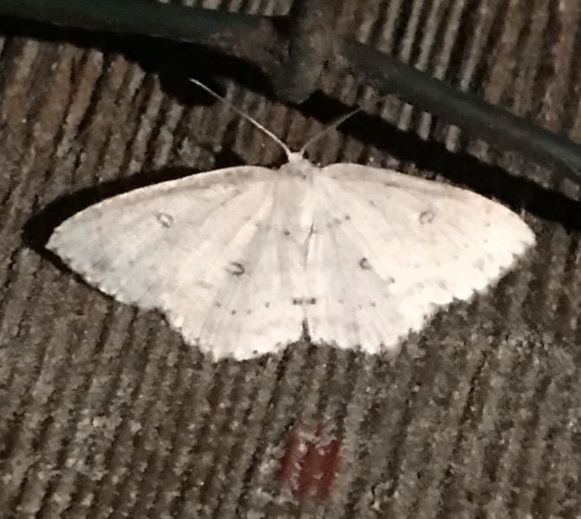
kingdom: Animalia
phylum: Arthropoda
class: Insecta
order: Lepidoptera
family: Geometridae
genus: Cyclophora
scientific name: Cyclophora pendulinaria
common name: Sweet fern geometer
